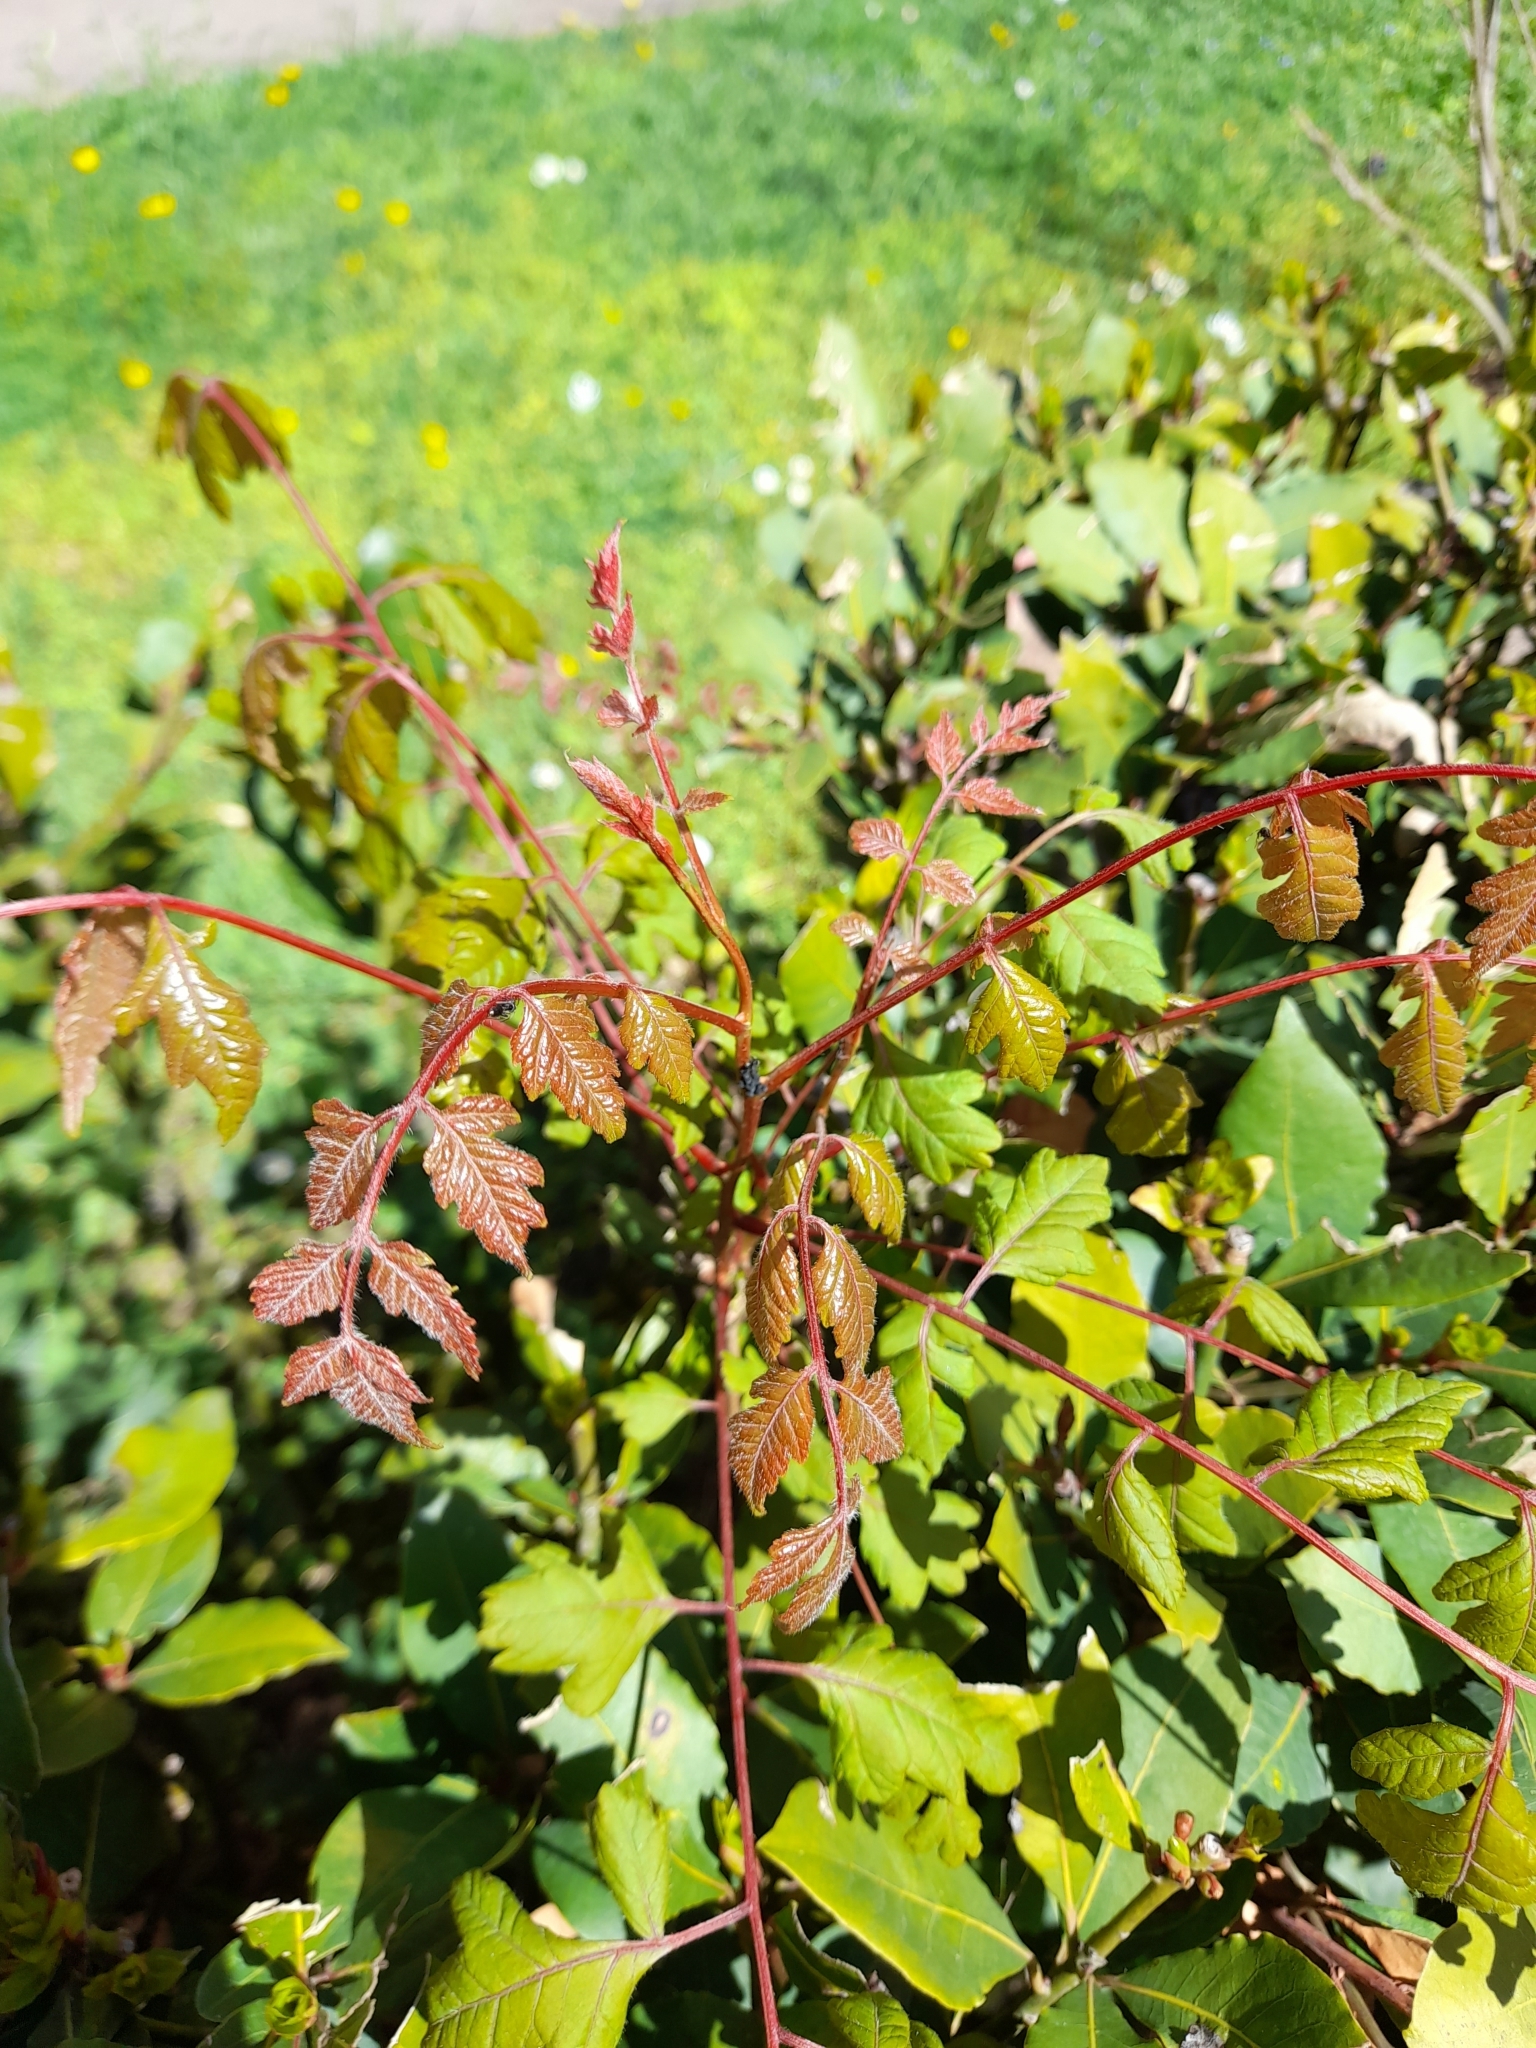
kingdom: Plantae
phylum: Tracheophyta
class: Magnoliopsida
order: Sapindales
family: Sapindaceae
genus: Koelreuteria
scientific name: Koelreuteria paniculata
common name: Pride-of-india
